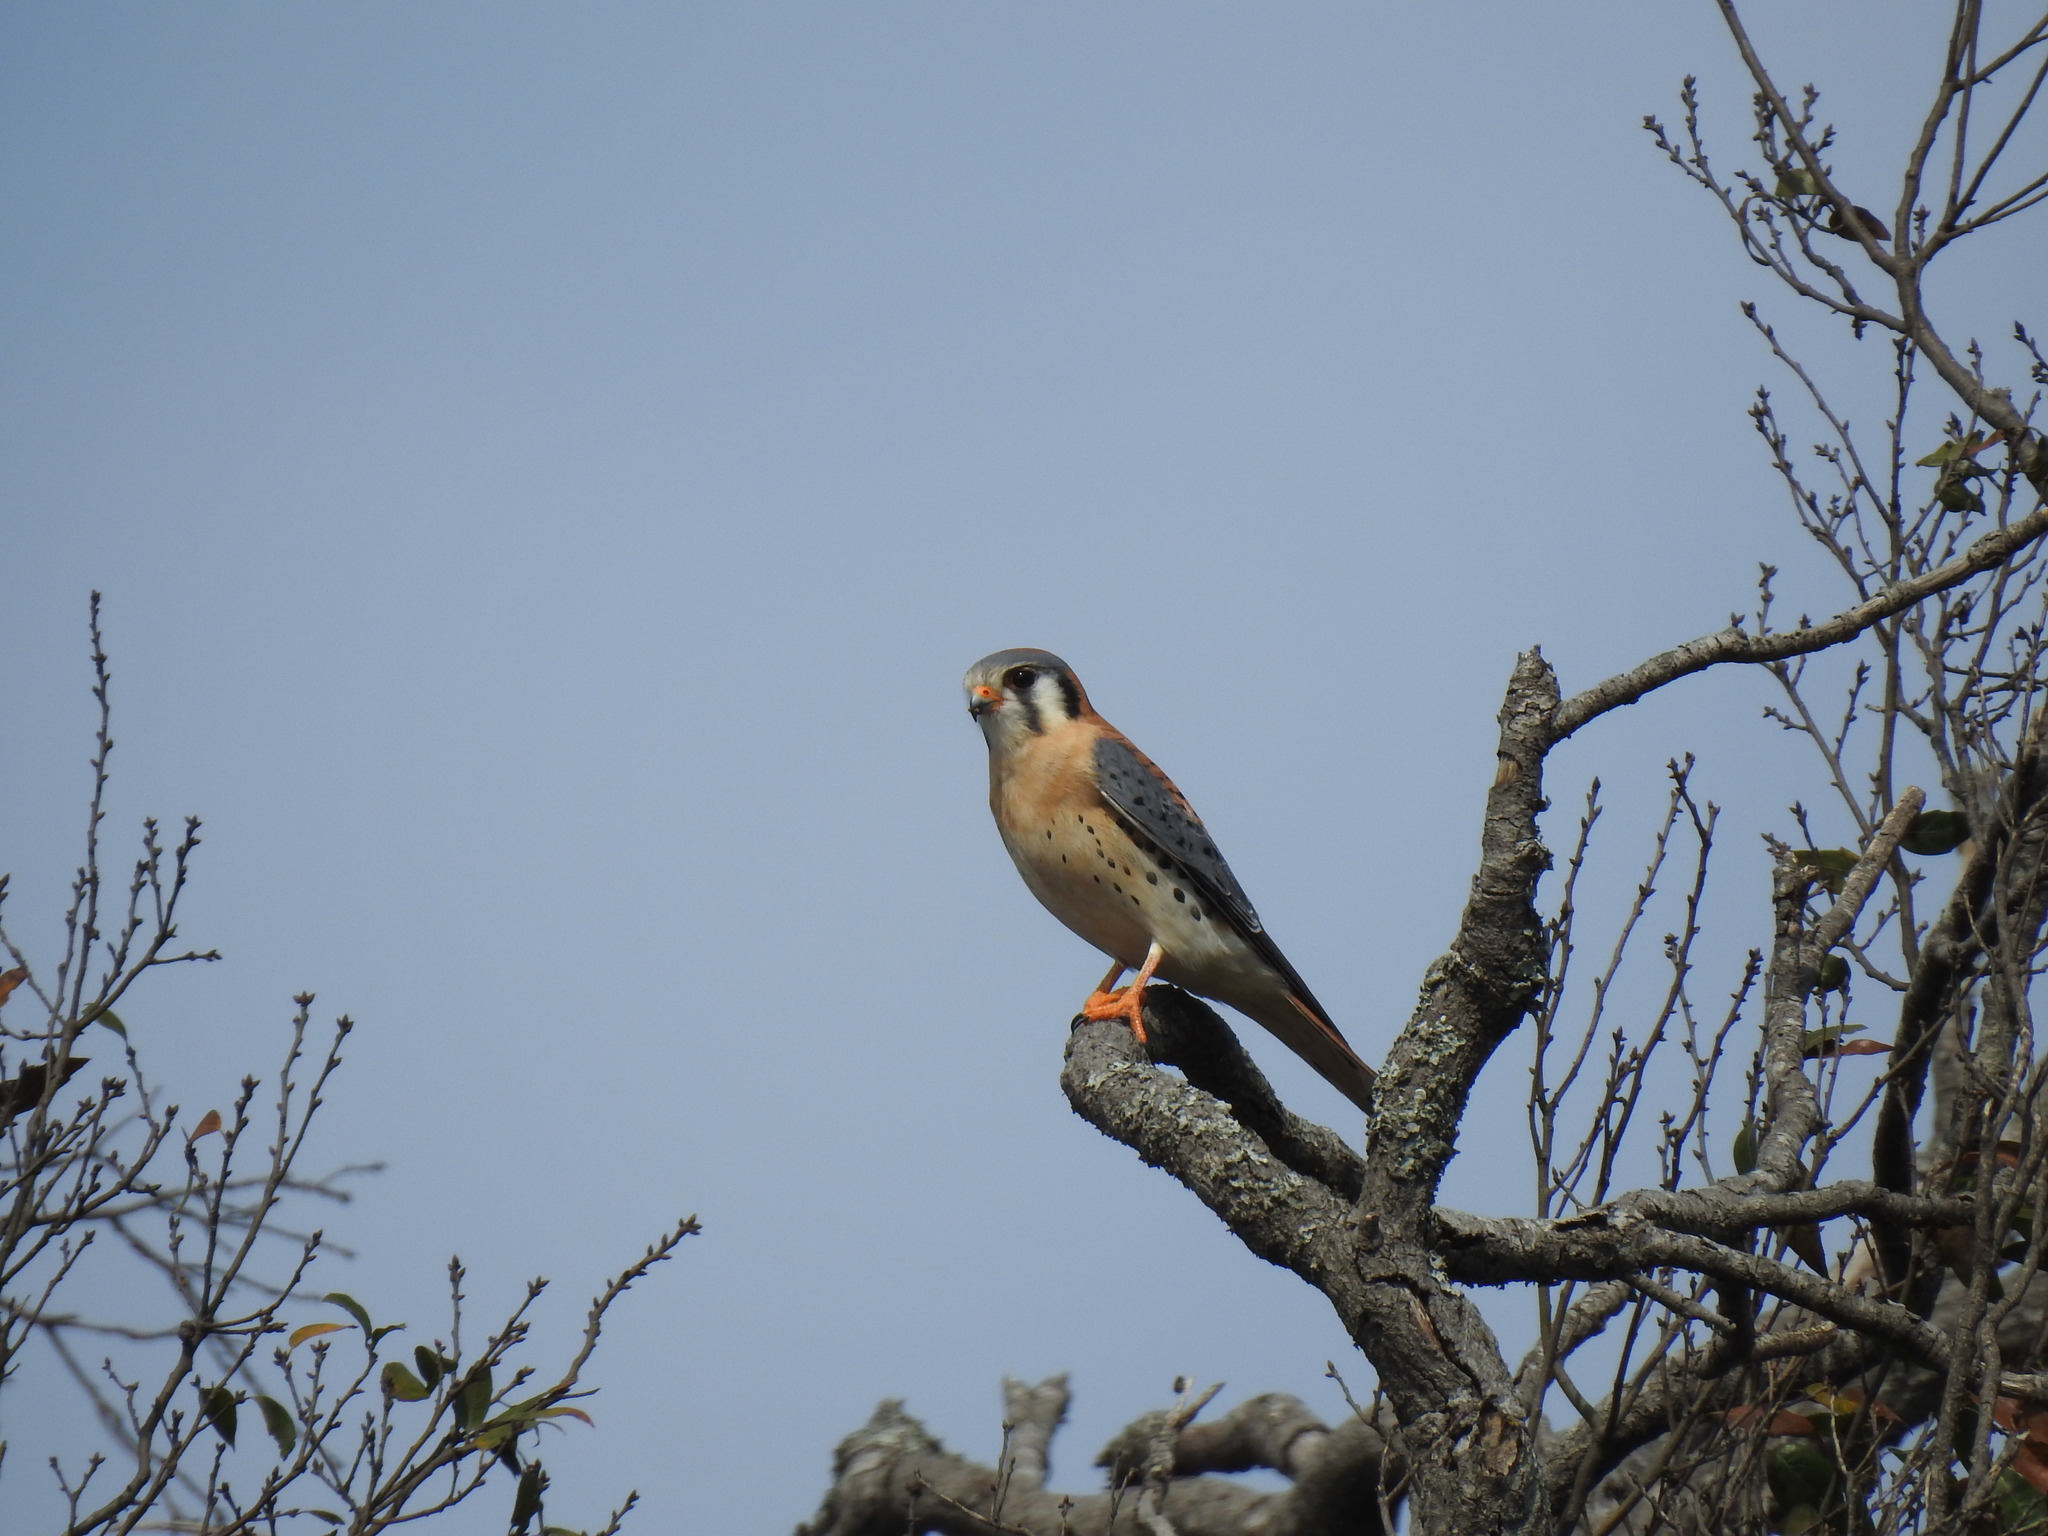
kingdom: Animalia
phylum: Chordata
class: Aves
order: Falconiformes
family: Falconidae
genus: Falco
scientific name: Falco sparverius
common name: American kestrel
